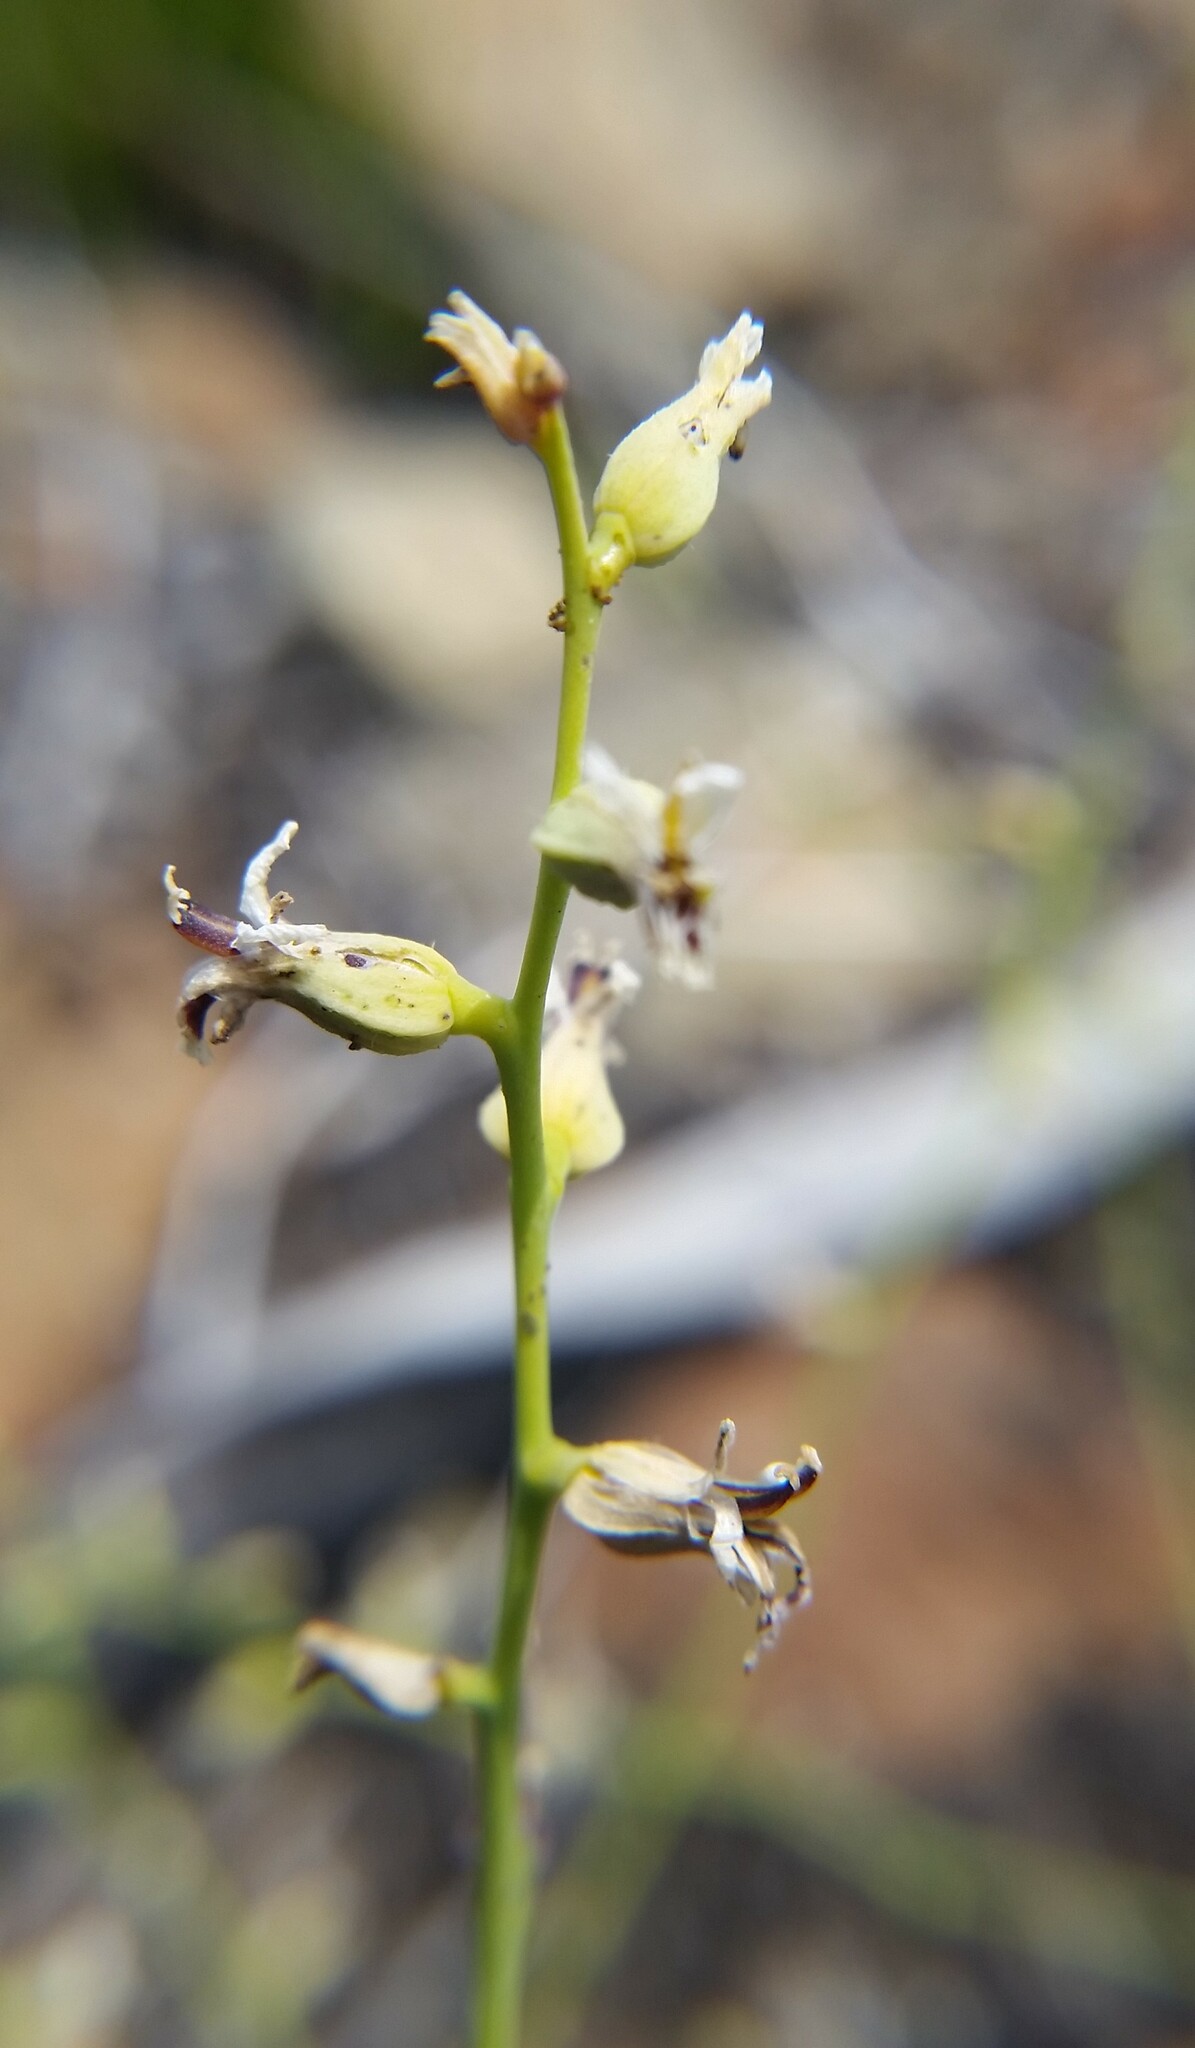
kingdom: Plantae
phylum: Tracheophyta
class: Magnoliopsida
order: Brassicales
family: Brassicaceae
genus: Streptanthus
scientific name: Streptanthus barbiger
